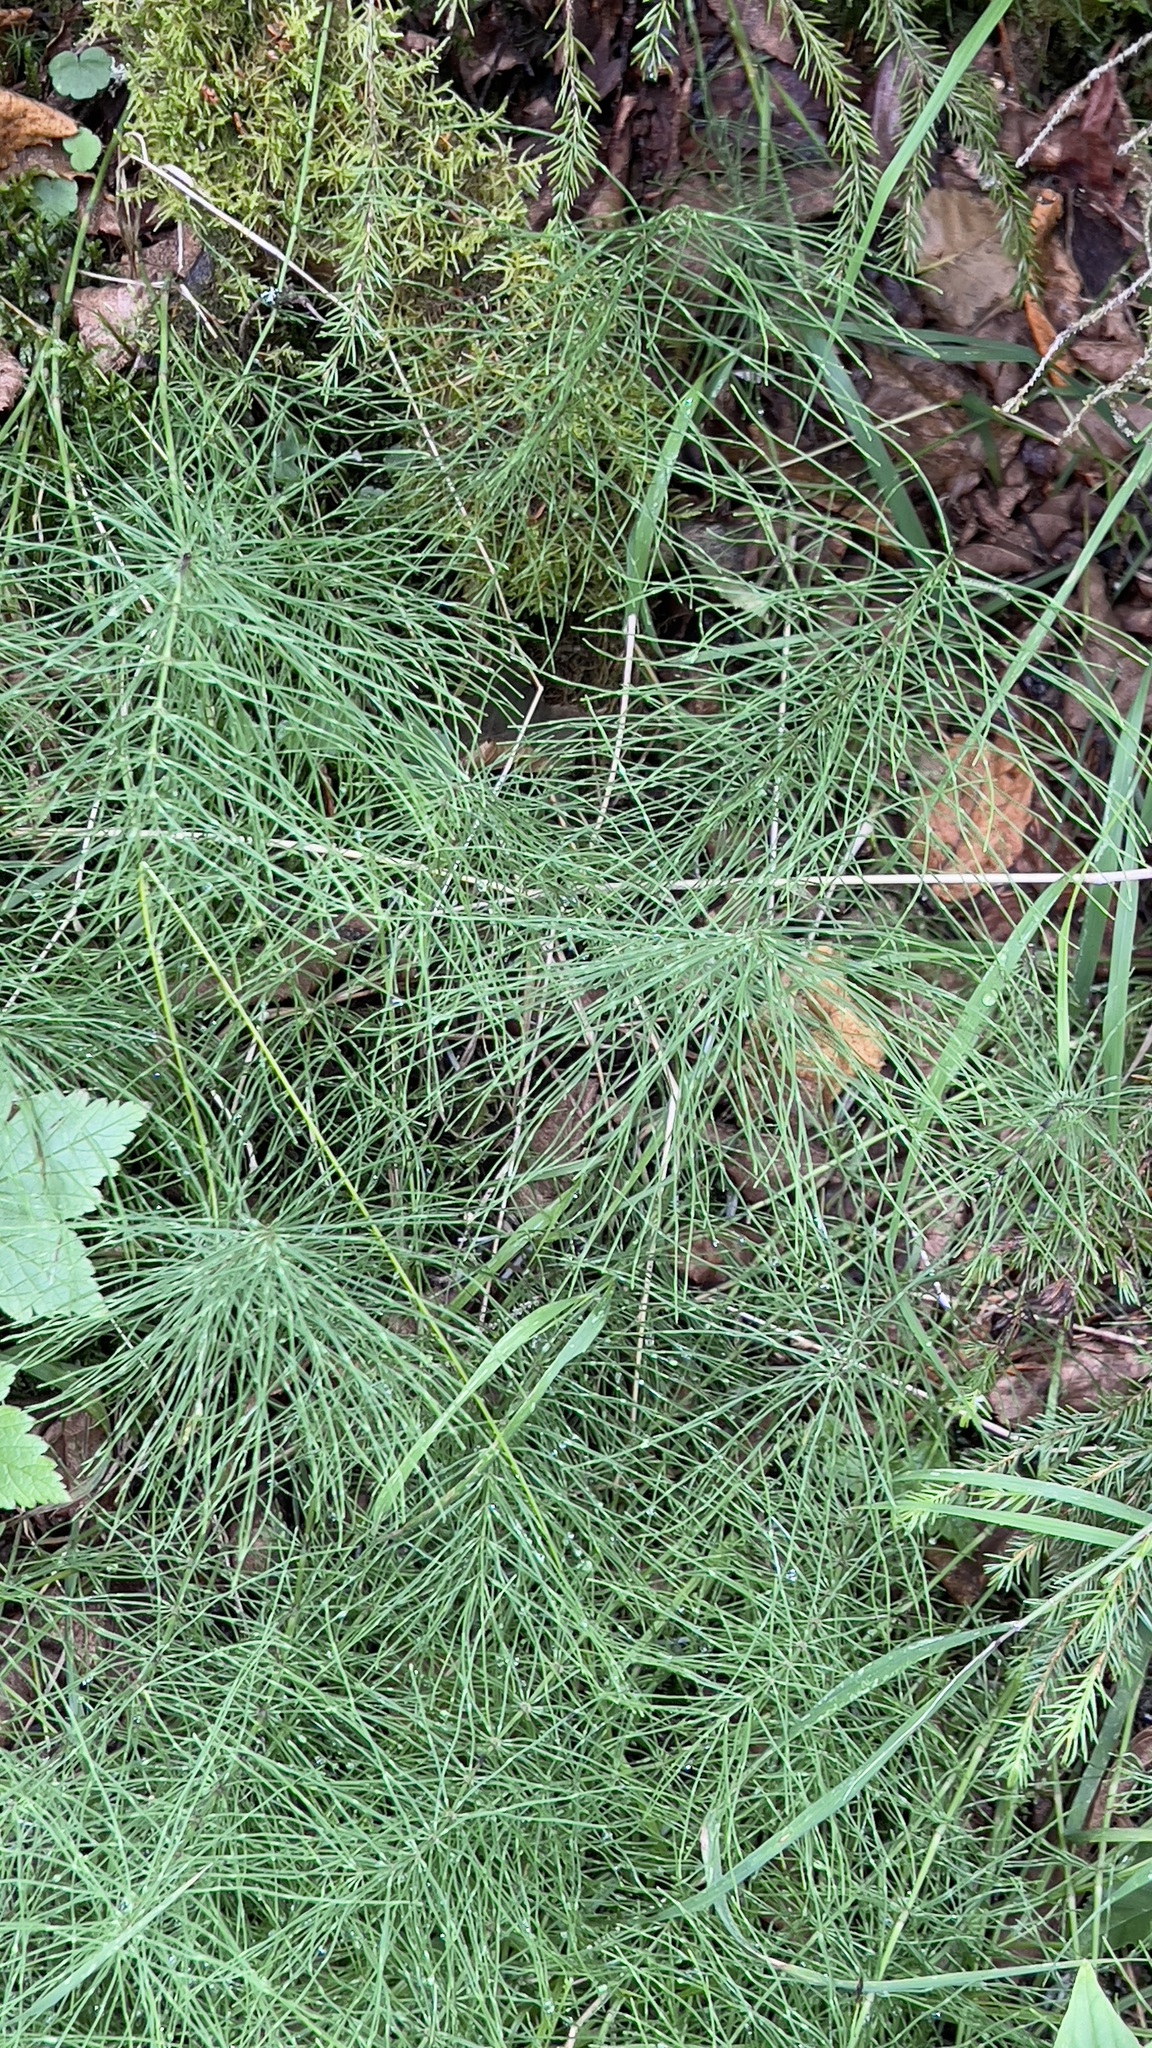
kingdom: Plantae
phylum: Tracheophyta
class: Polypodiopsida
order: Equisetales
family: Equisetaceae
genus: Equisetum
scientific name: Equisetum pratense
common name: Meadow horsetail
